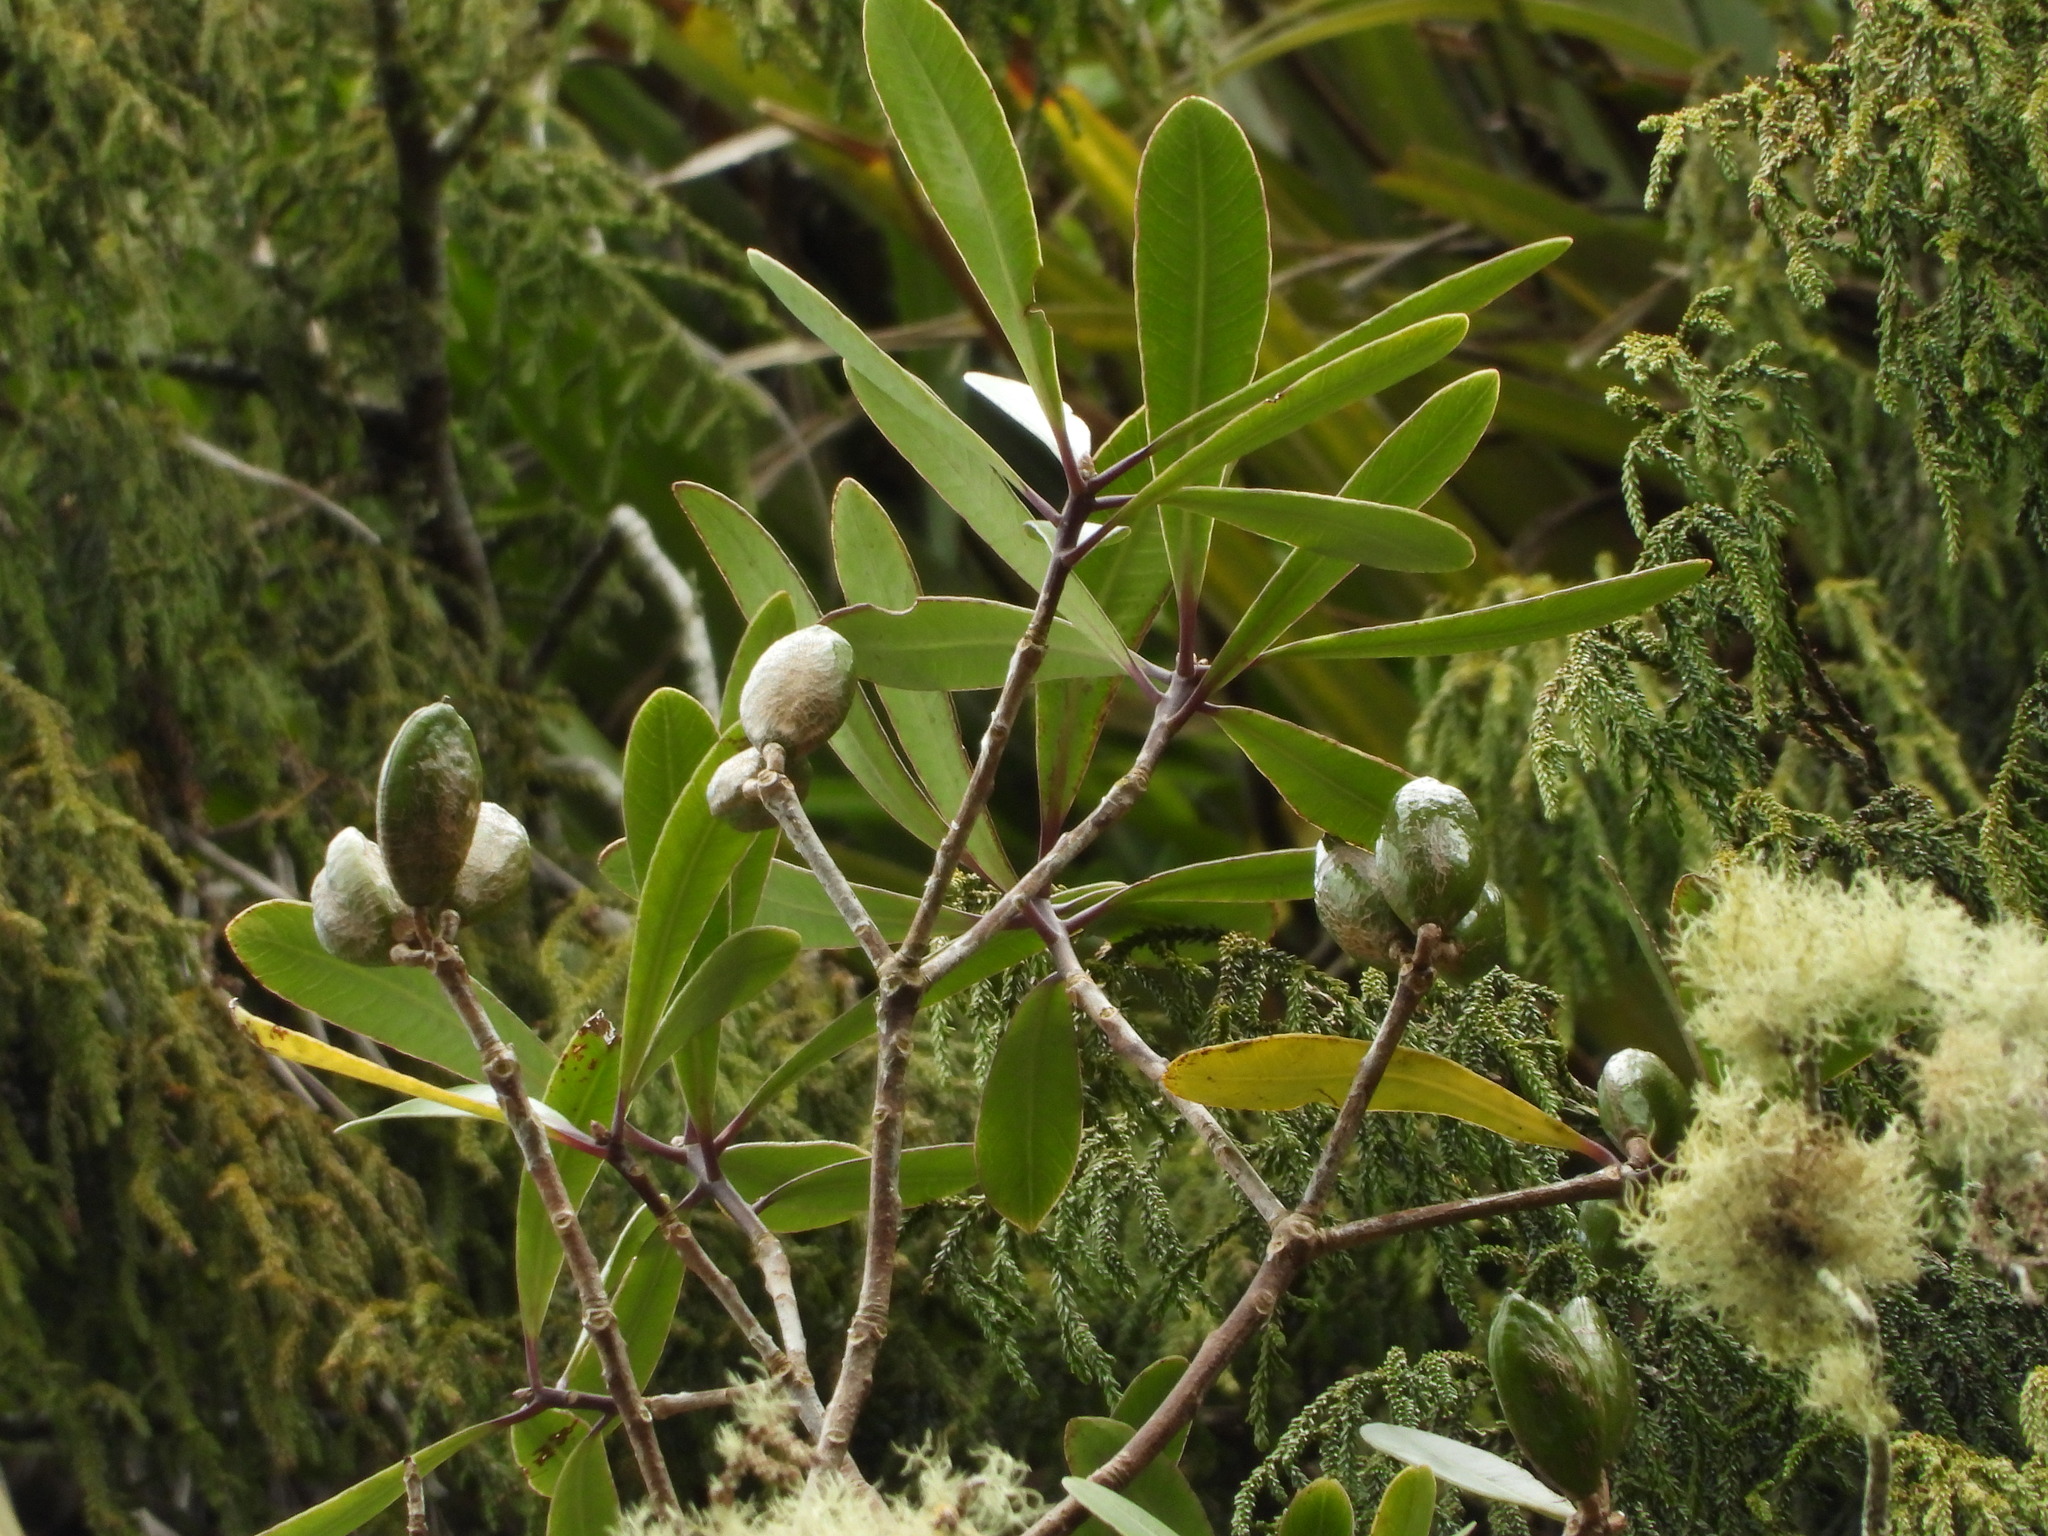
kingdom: Plantae
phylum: Tracheophyta
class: Magnoliopsida
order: Apiales
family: Pittosporaceae
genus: Pittosporum
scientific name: Pittosporum kirkii
